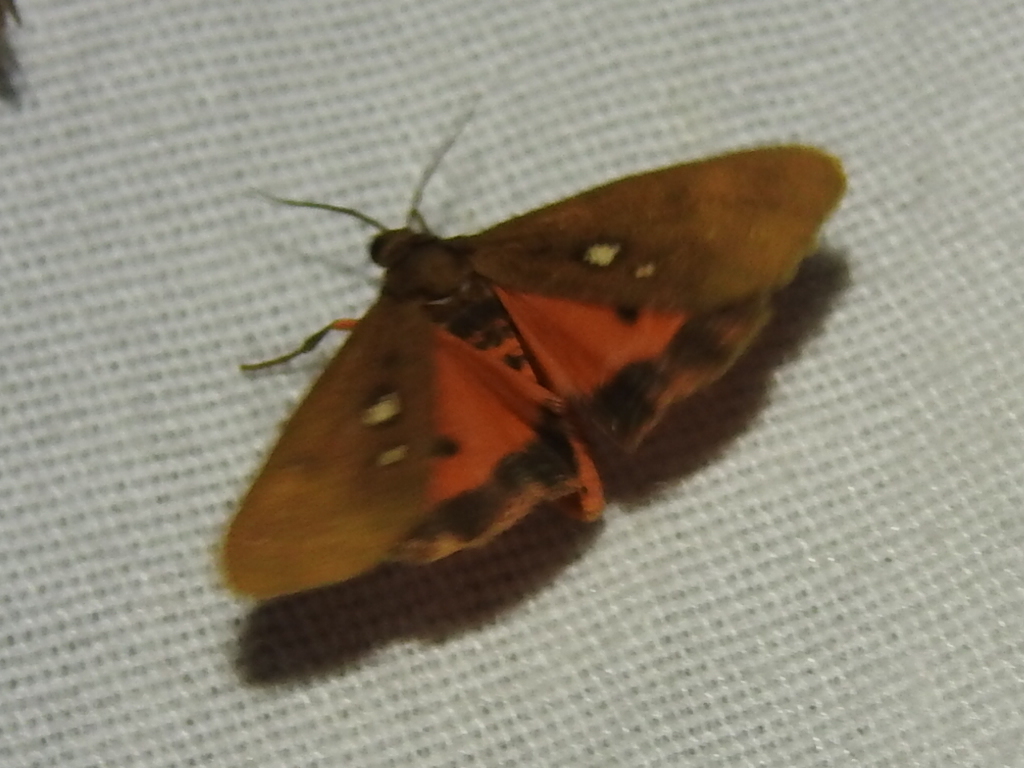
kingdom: Animalia
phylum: Arthropoda
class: Insecta
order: Lepidoptera
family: Erebidae
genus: Virbia
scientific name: Virbia aurantiaca
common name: Orange virbia moth
